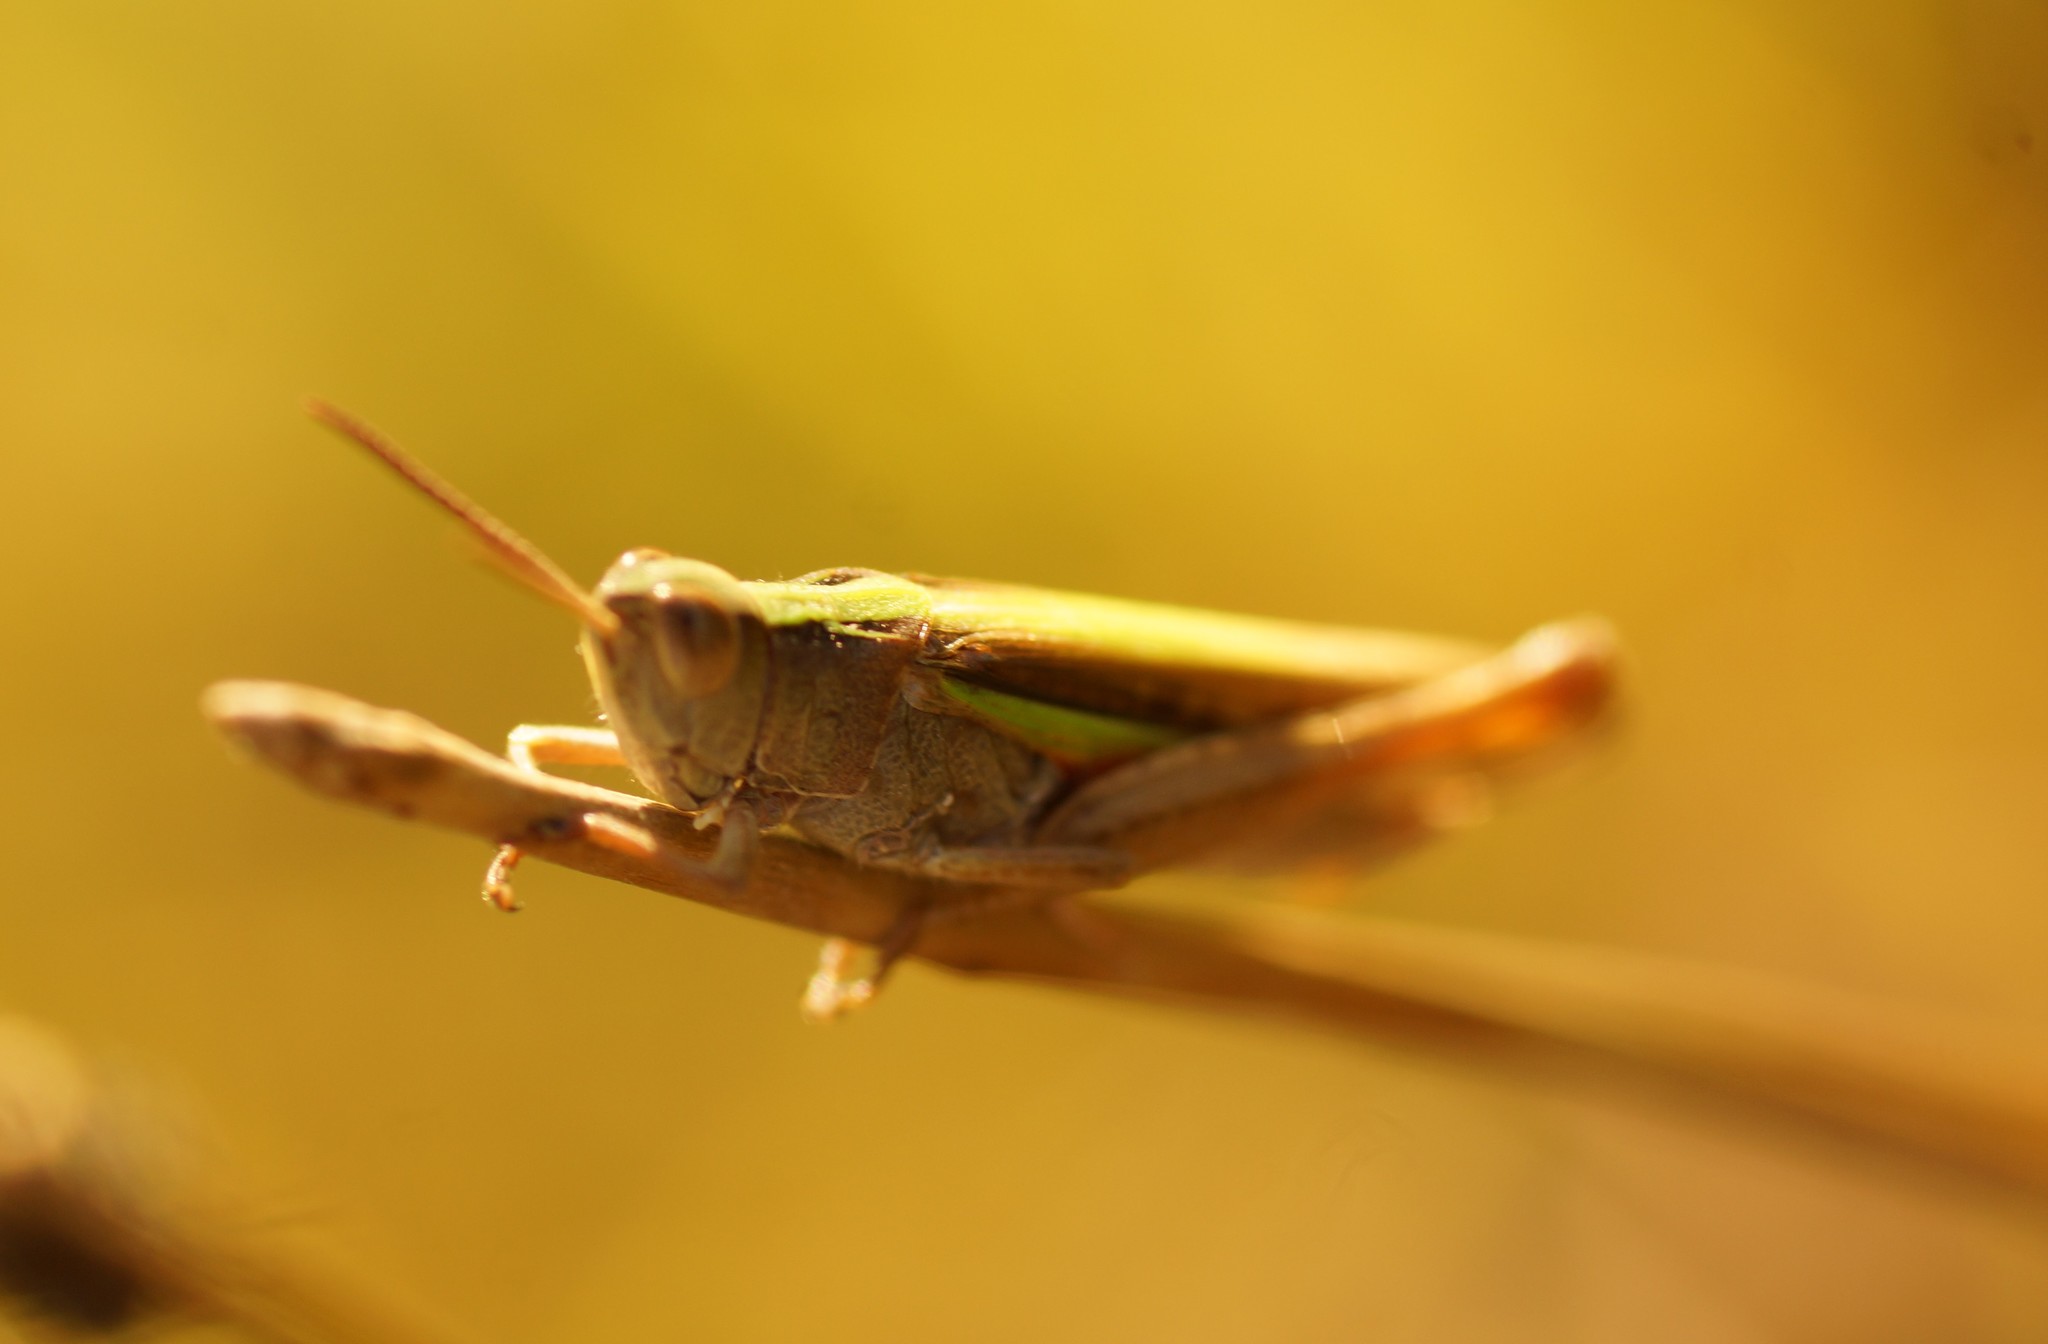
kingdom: Animalia
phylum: Arthropoda
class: Insecta
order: Orthoptera
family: Acrididae
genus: Schizobothrus
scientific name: Schizobothrus flavovittatus
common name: Disappearing grasshopper
